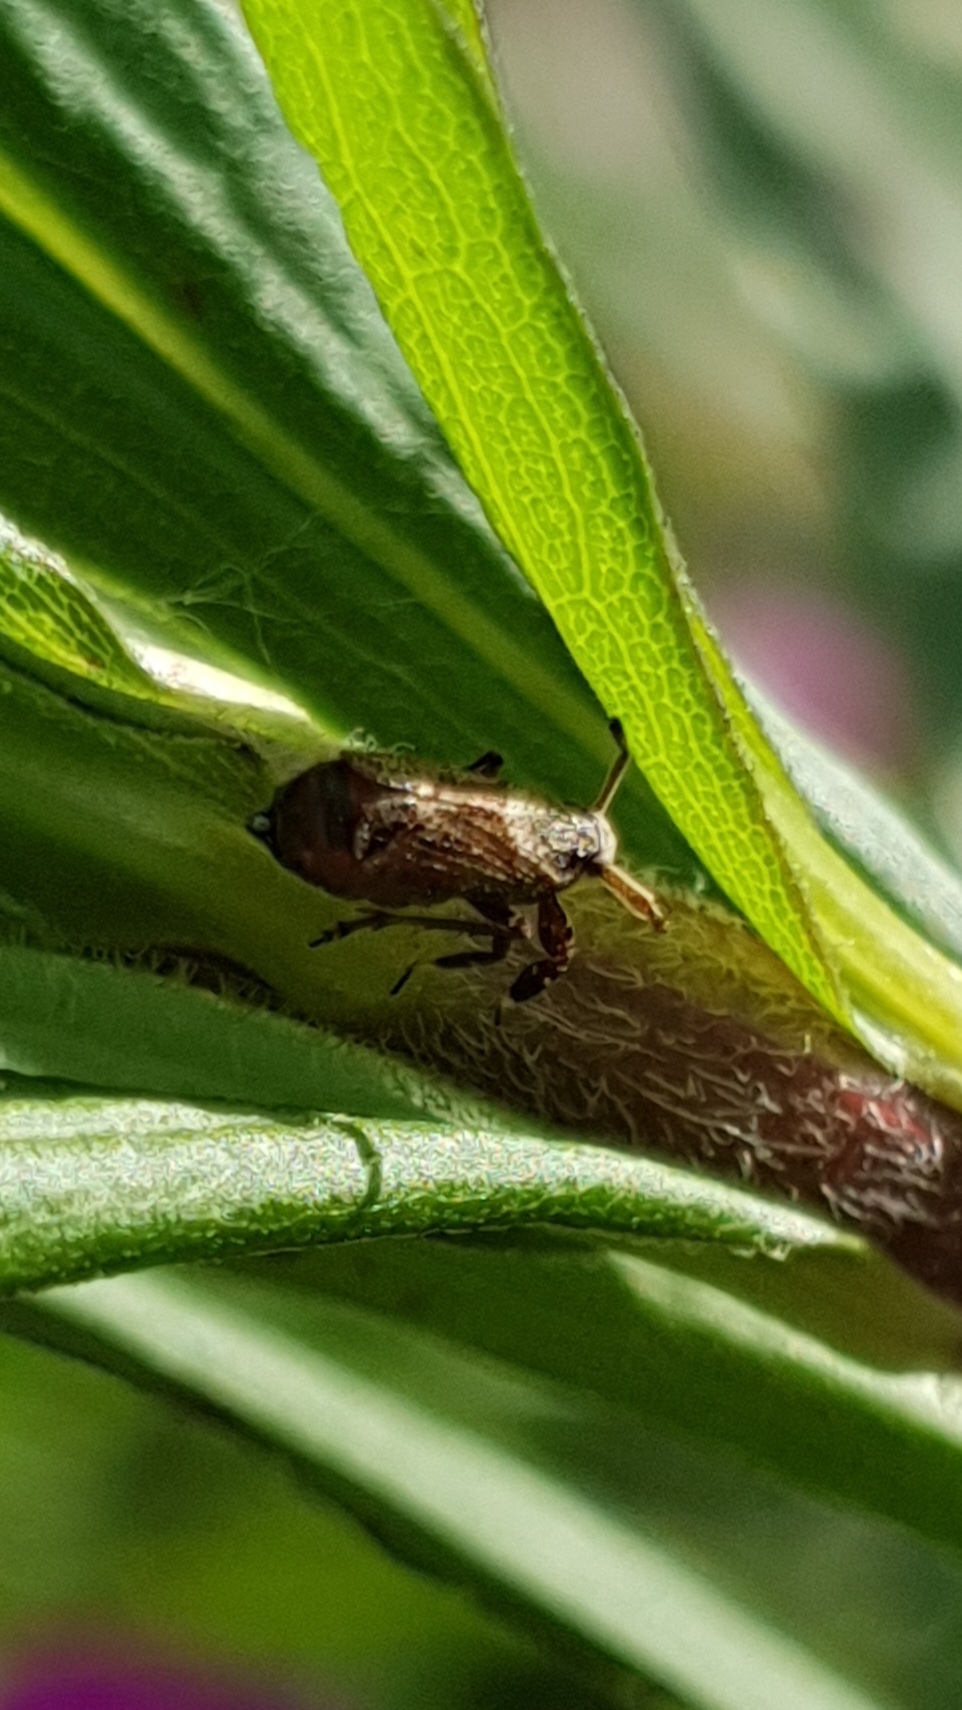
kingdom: Animalia
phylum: Arthropoda
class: Insecta
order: Hemiptera
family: Delphacidae
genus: Asiraca
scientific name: Asiraca clavicornis
